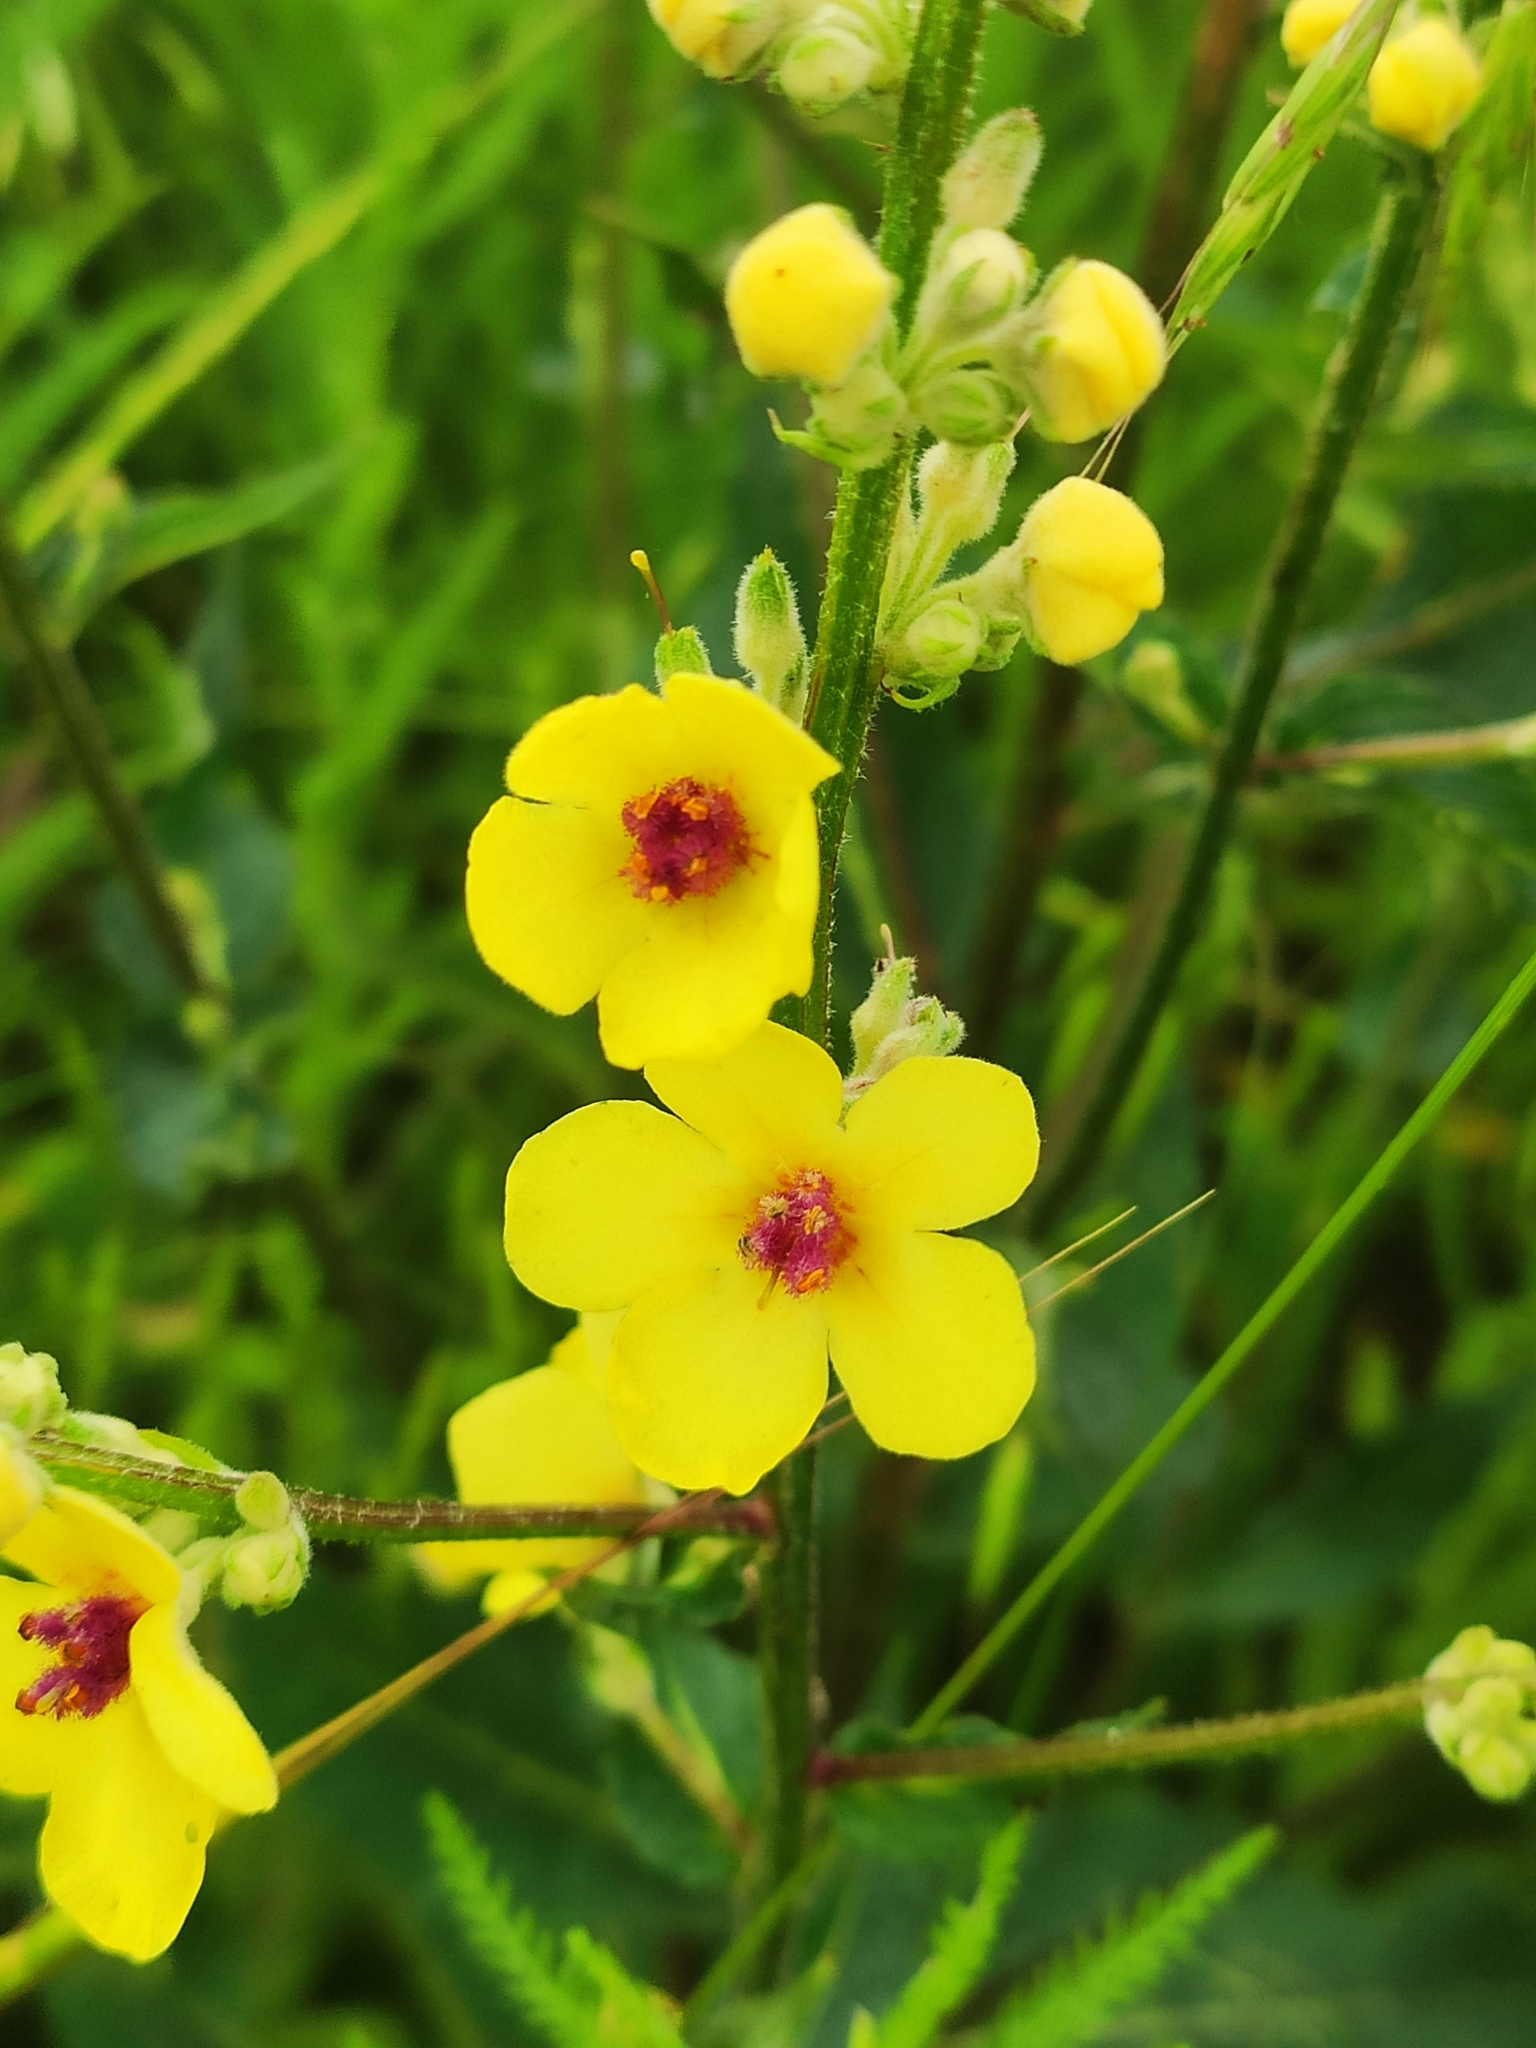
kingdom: Plantae
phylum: Tracheophyta
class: Magnoliopsida
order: Lamiales
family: Scrophulariaceae
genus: Verbascum
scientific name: Verbascum chaixii
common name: Nettle-leaved mullein
